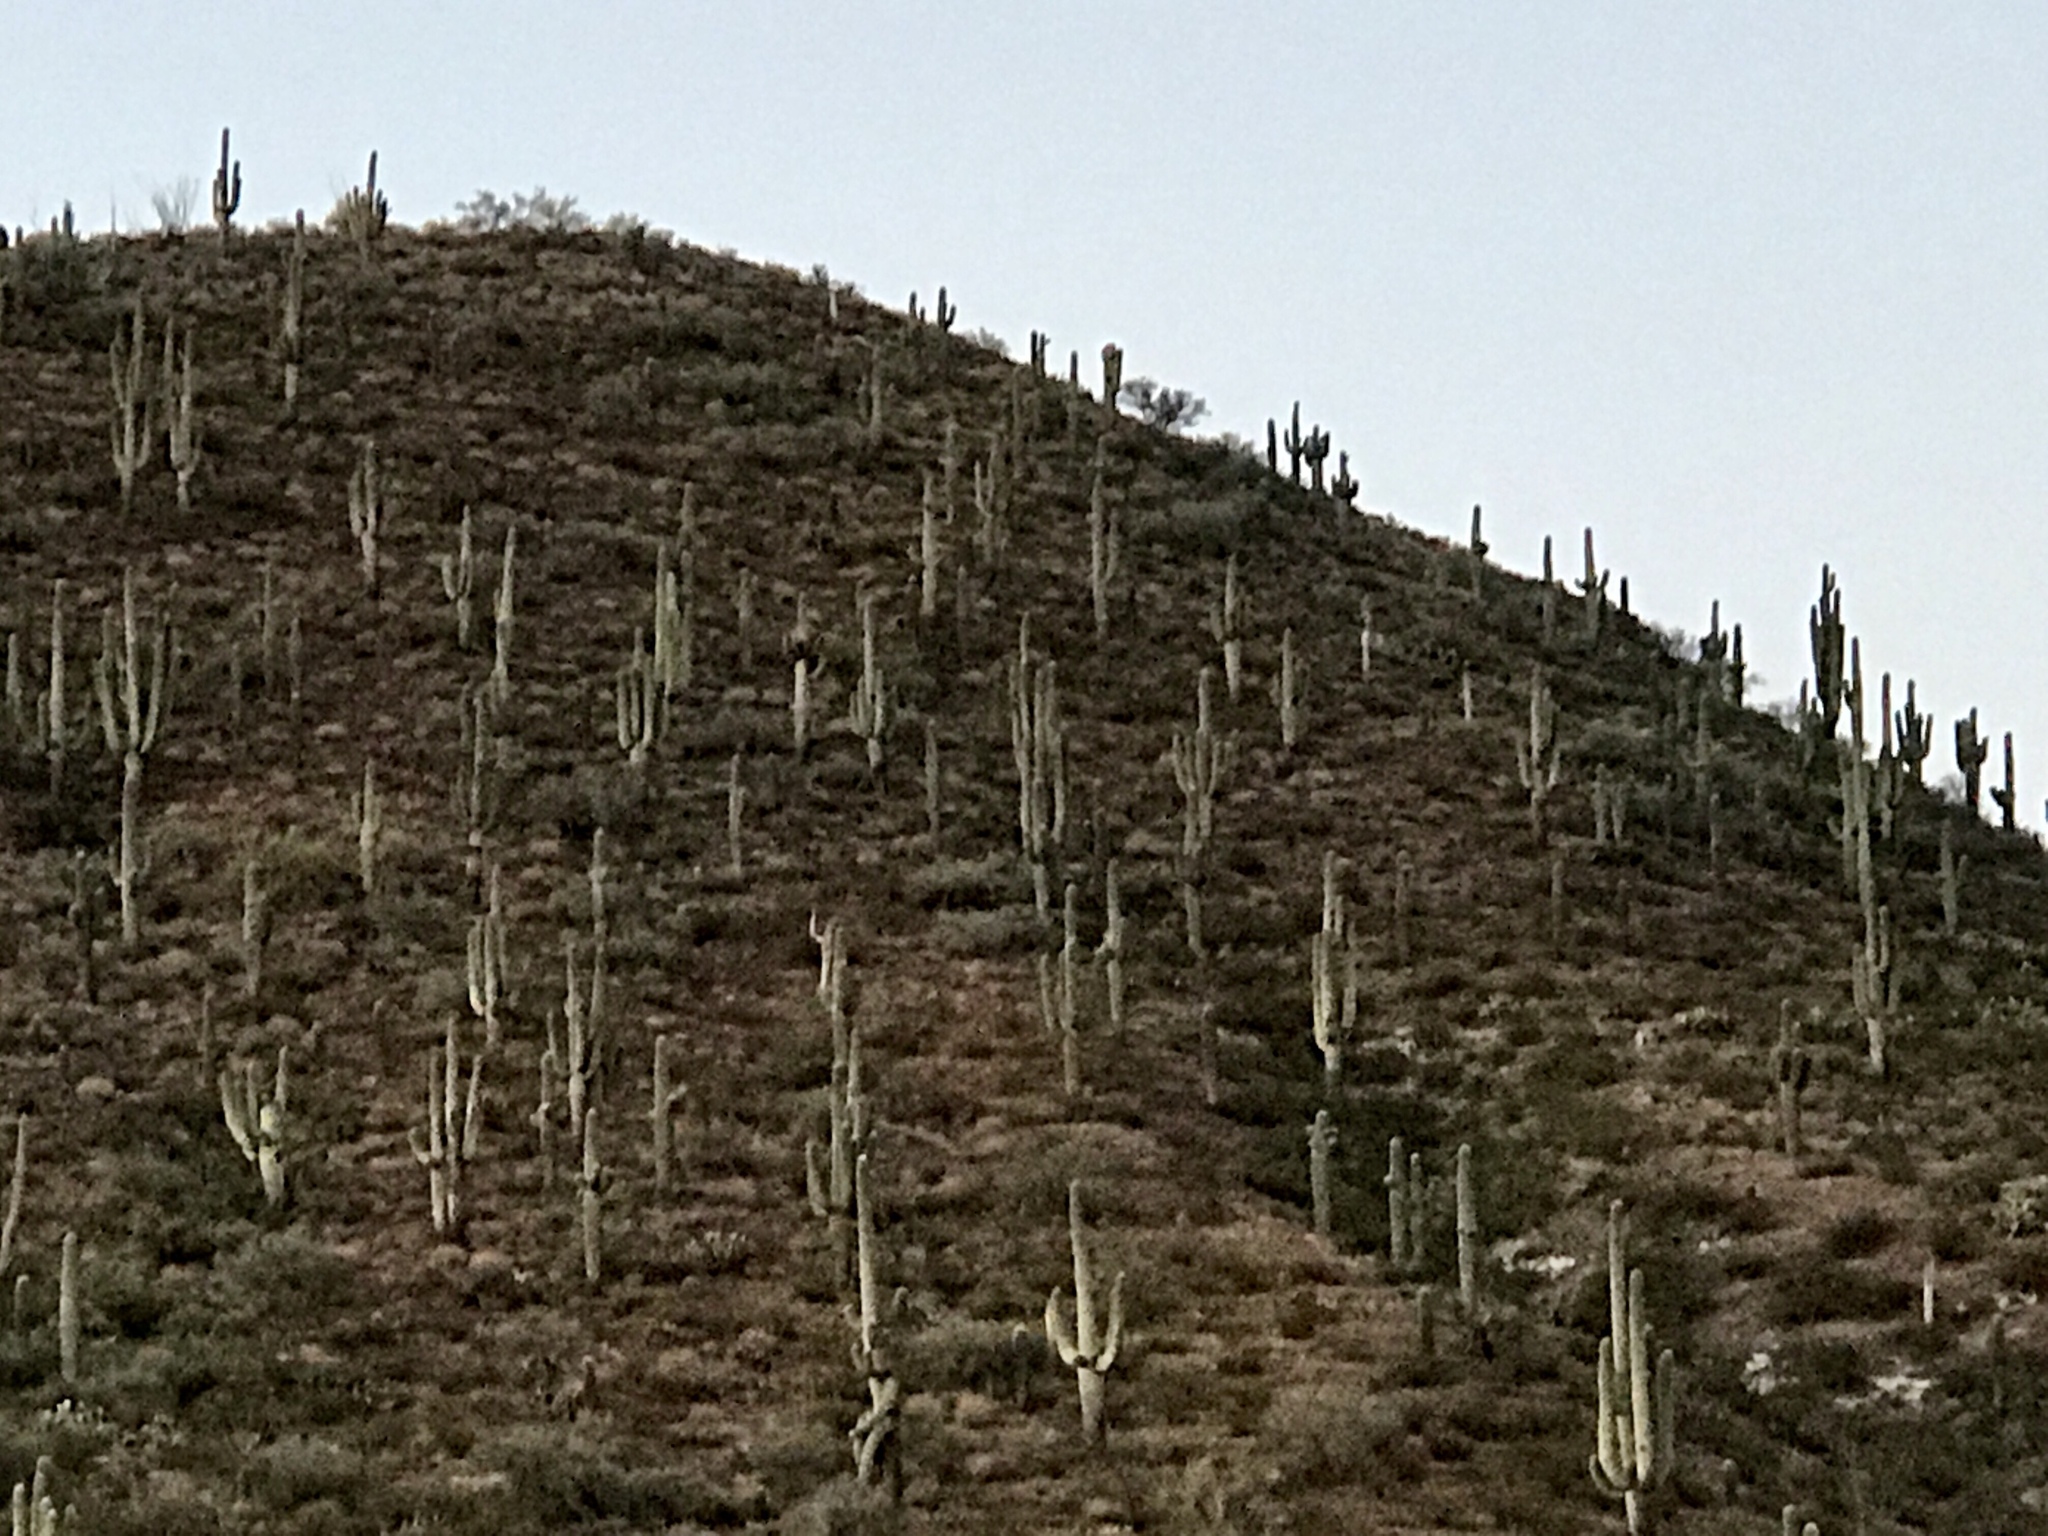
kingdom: Plantae
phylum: Tracheophyta
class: Magnoliopsida
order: Caryophyllales
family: Cactaceae
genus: Carnegiea
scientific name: Carnegiea gigantea
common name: Saguaro
